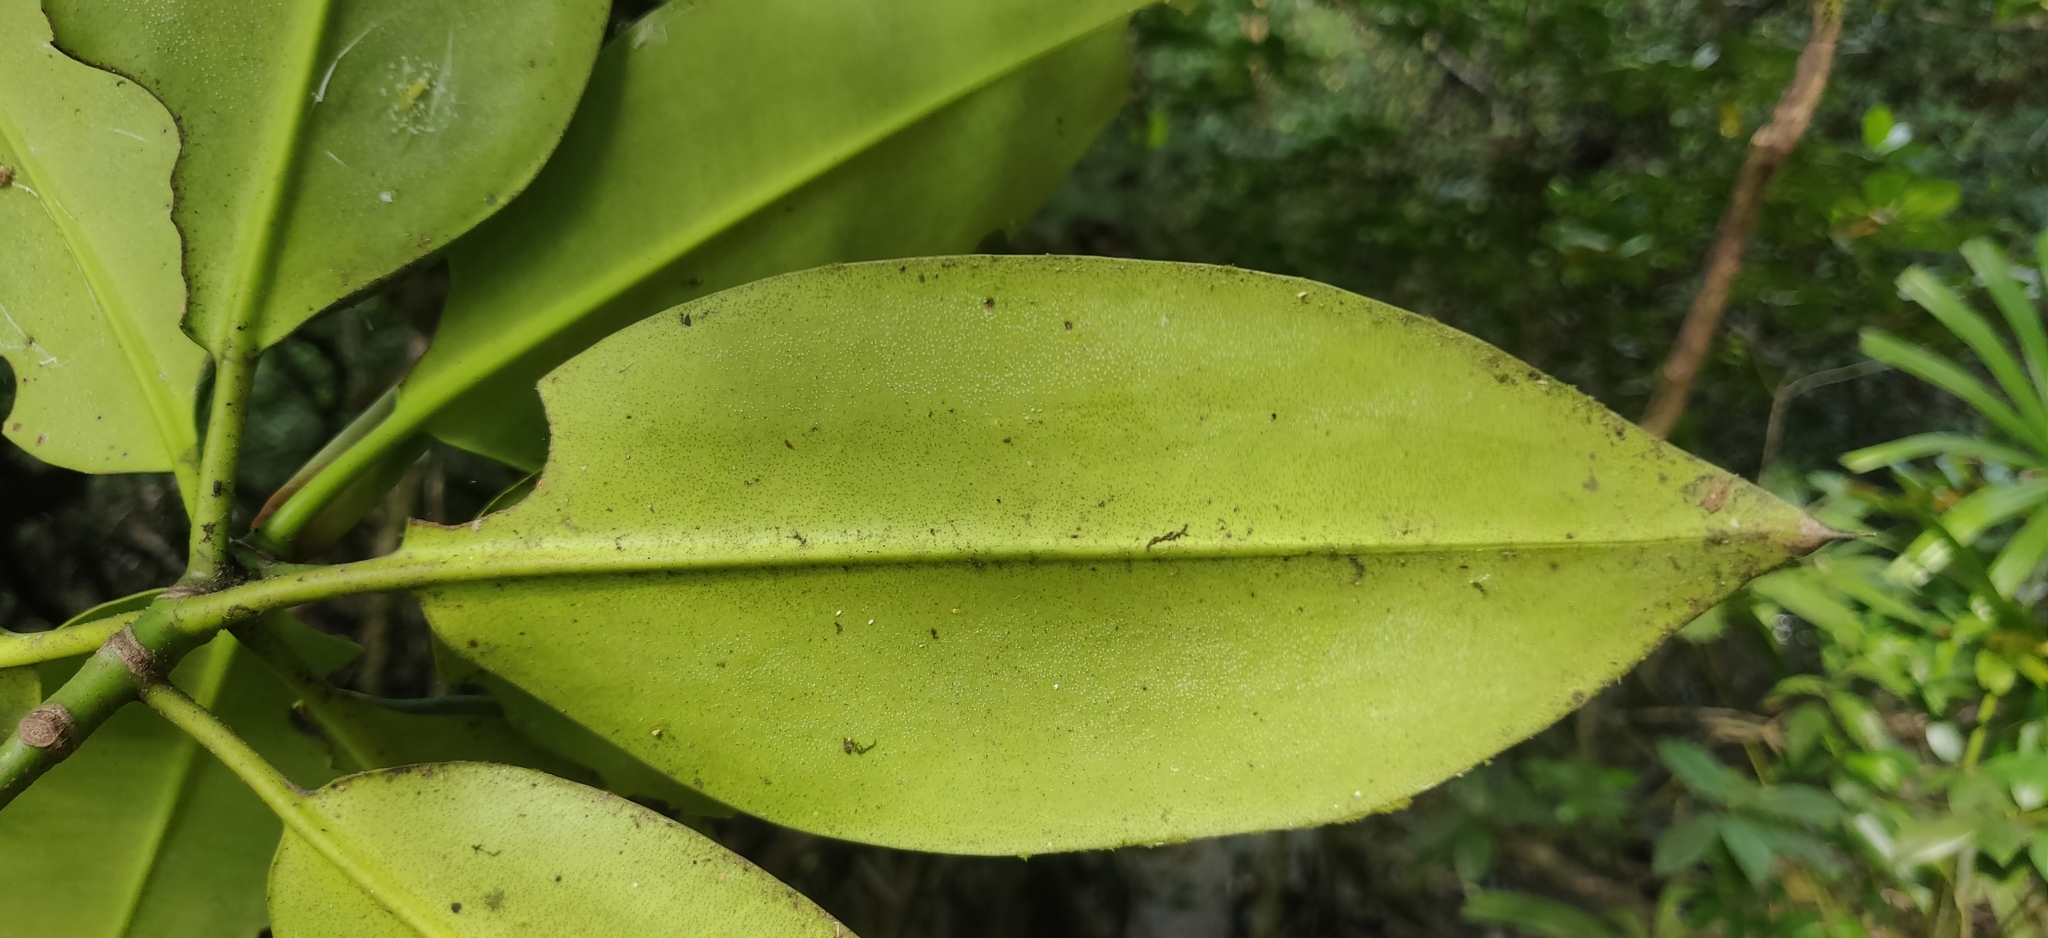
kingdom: Plantae
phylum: Tracheophyta
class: Magnoliopsida
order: Malpighiales
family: Rhizophoraceae
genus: Rhizophora
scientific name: Rhizophora apiculata
